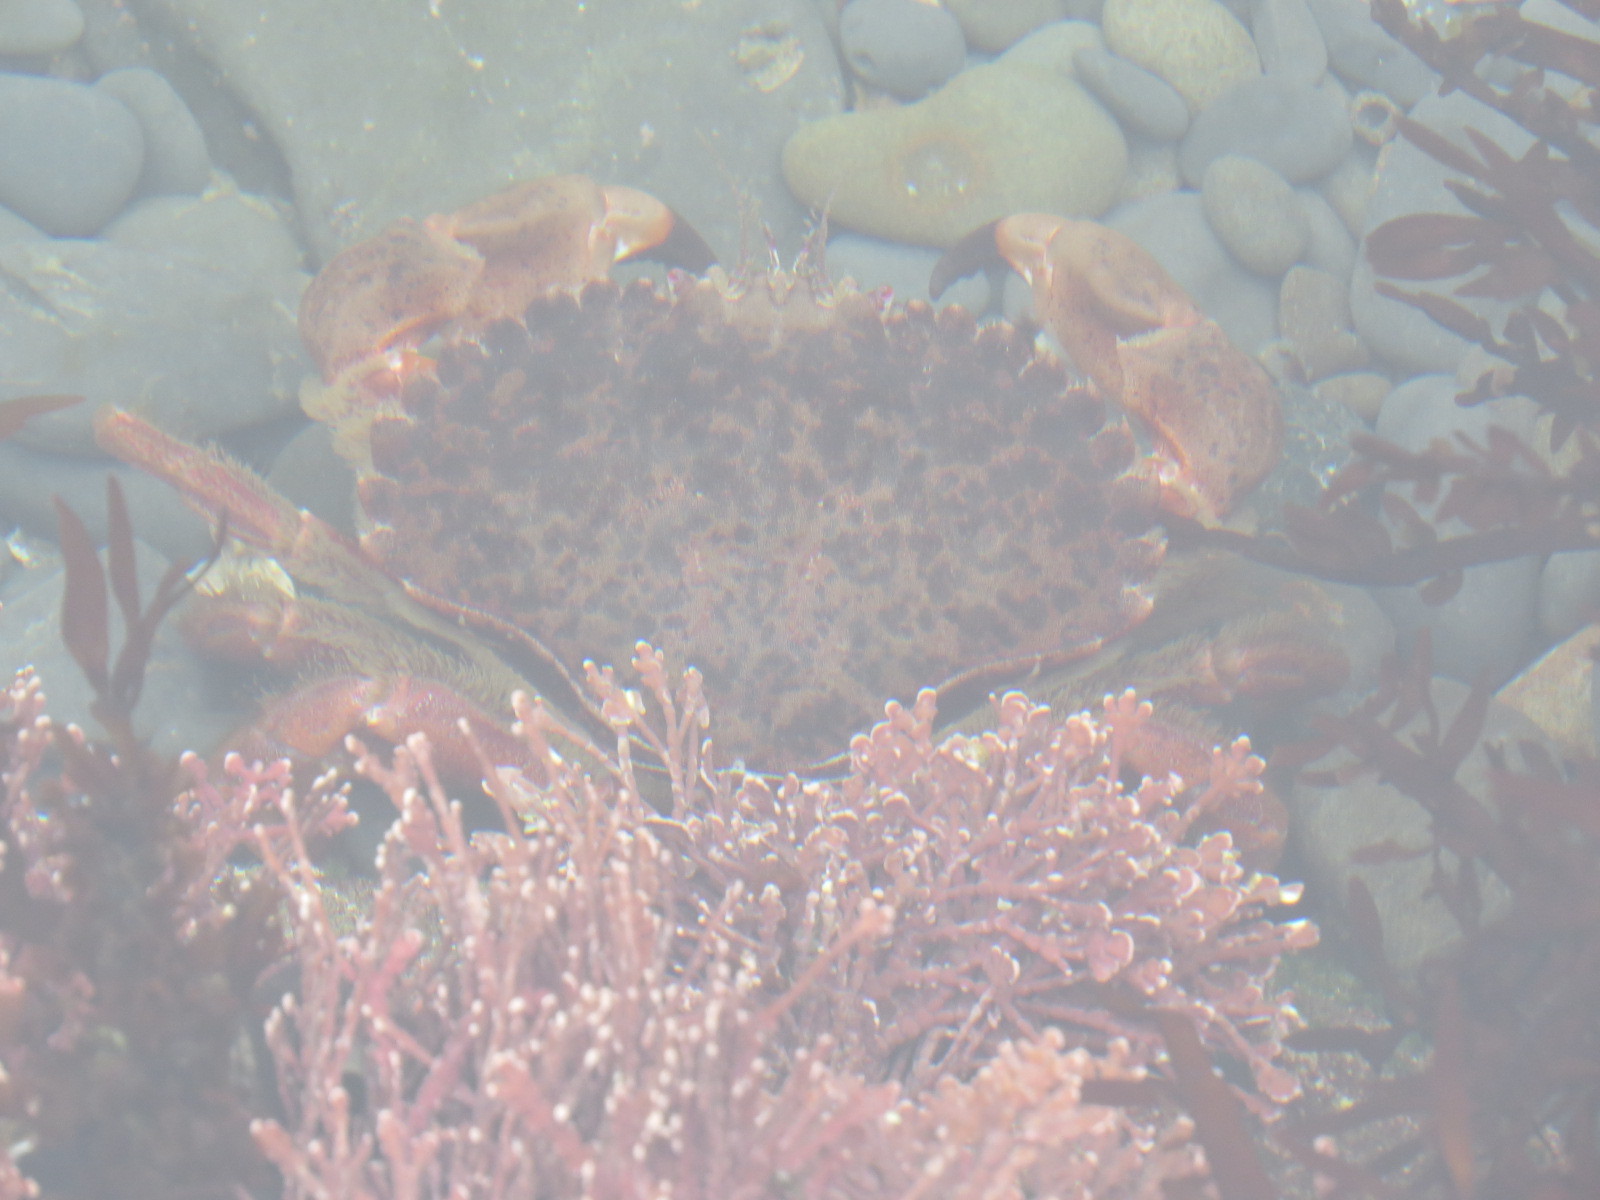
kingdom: Animalia
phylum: Arthropoda
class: Malacostraca
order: Decapoda
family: Cancridae
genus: Romaleon
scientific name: Romaleon antennarium
